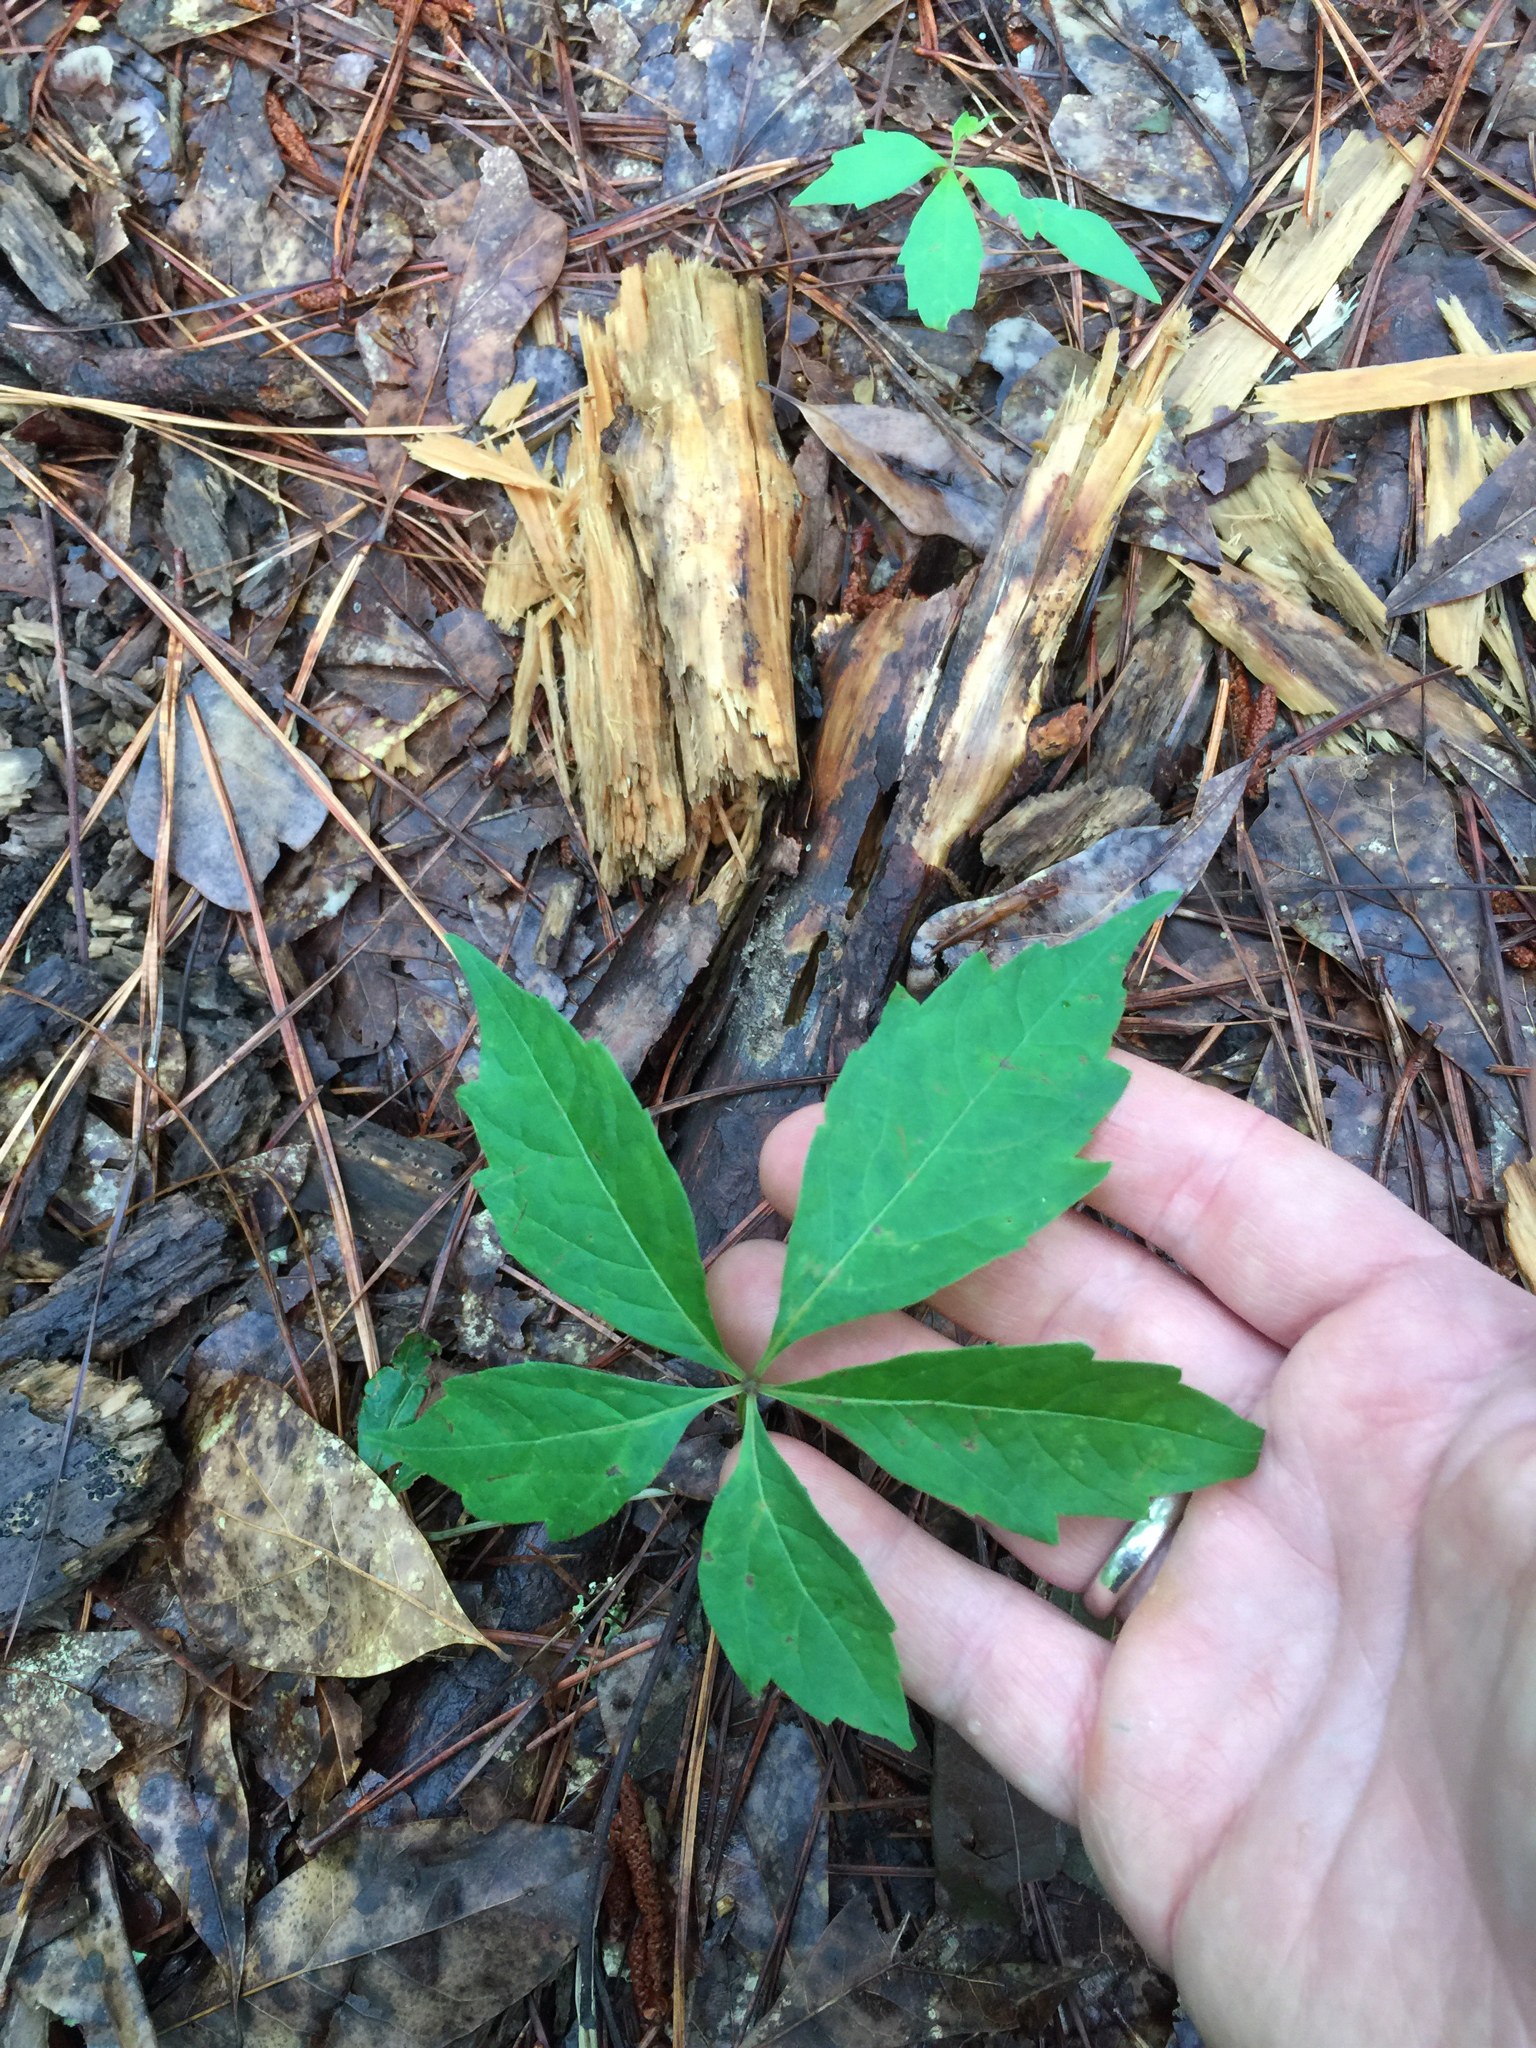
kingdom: Plantae
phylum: Tracheophyta
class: Magnoliopsida
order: Vitales
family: Vitaceae
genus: Parthenocissus
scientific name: Parthenocissus quinquefolia
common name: Virginia-creeper
